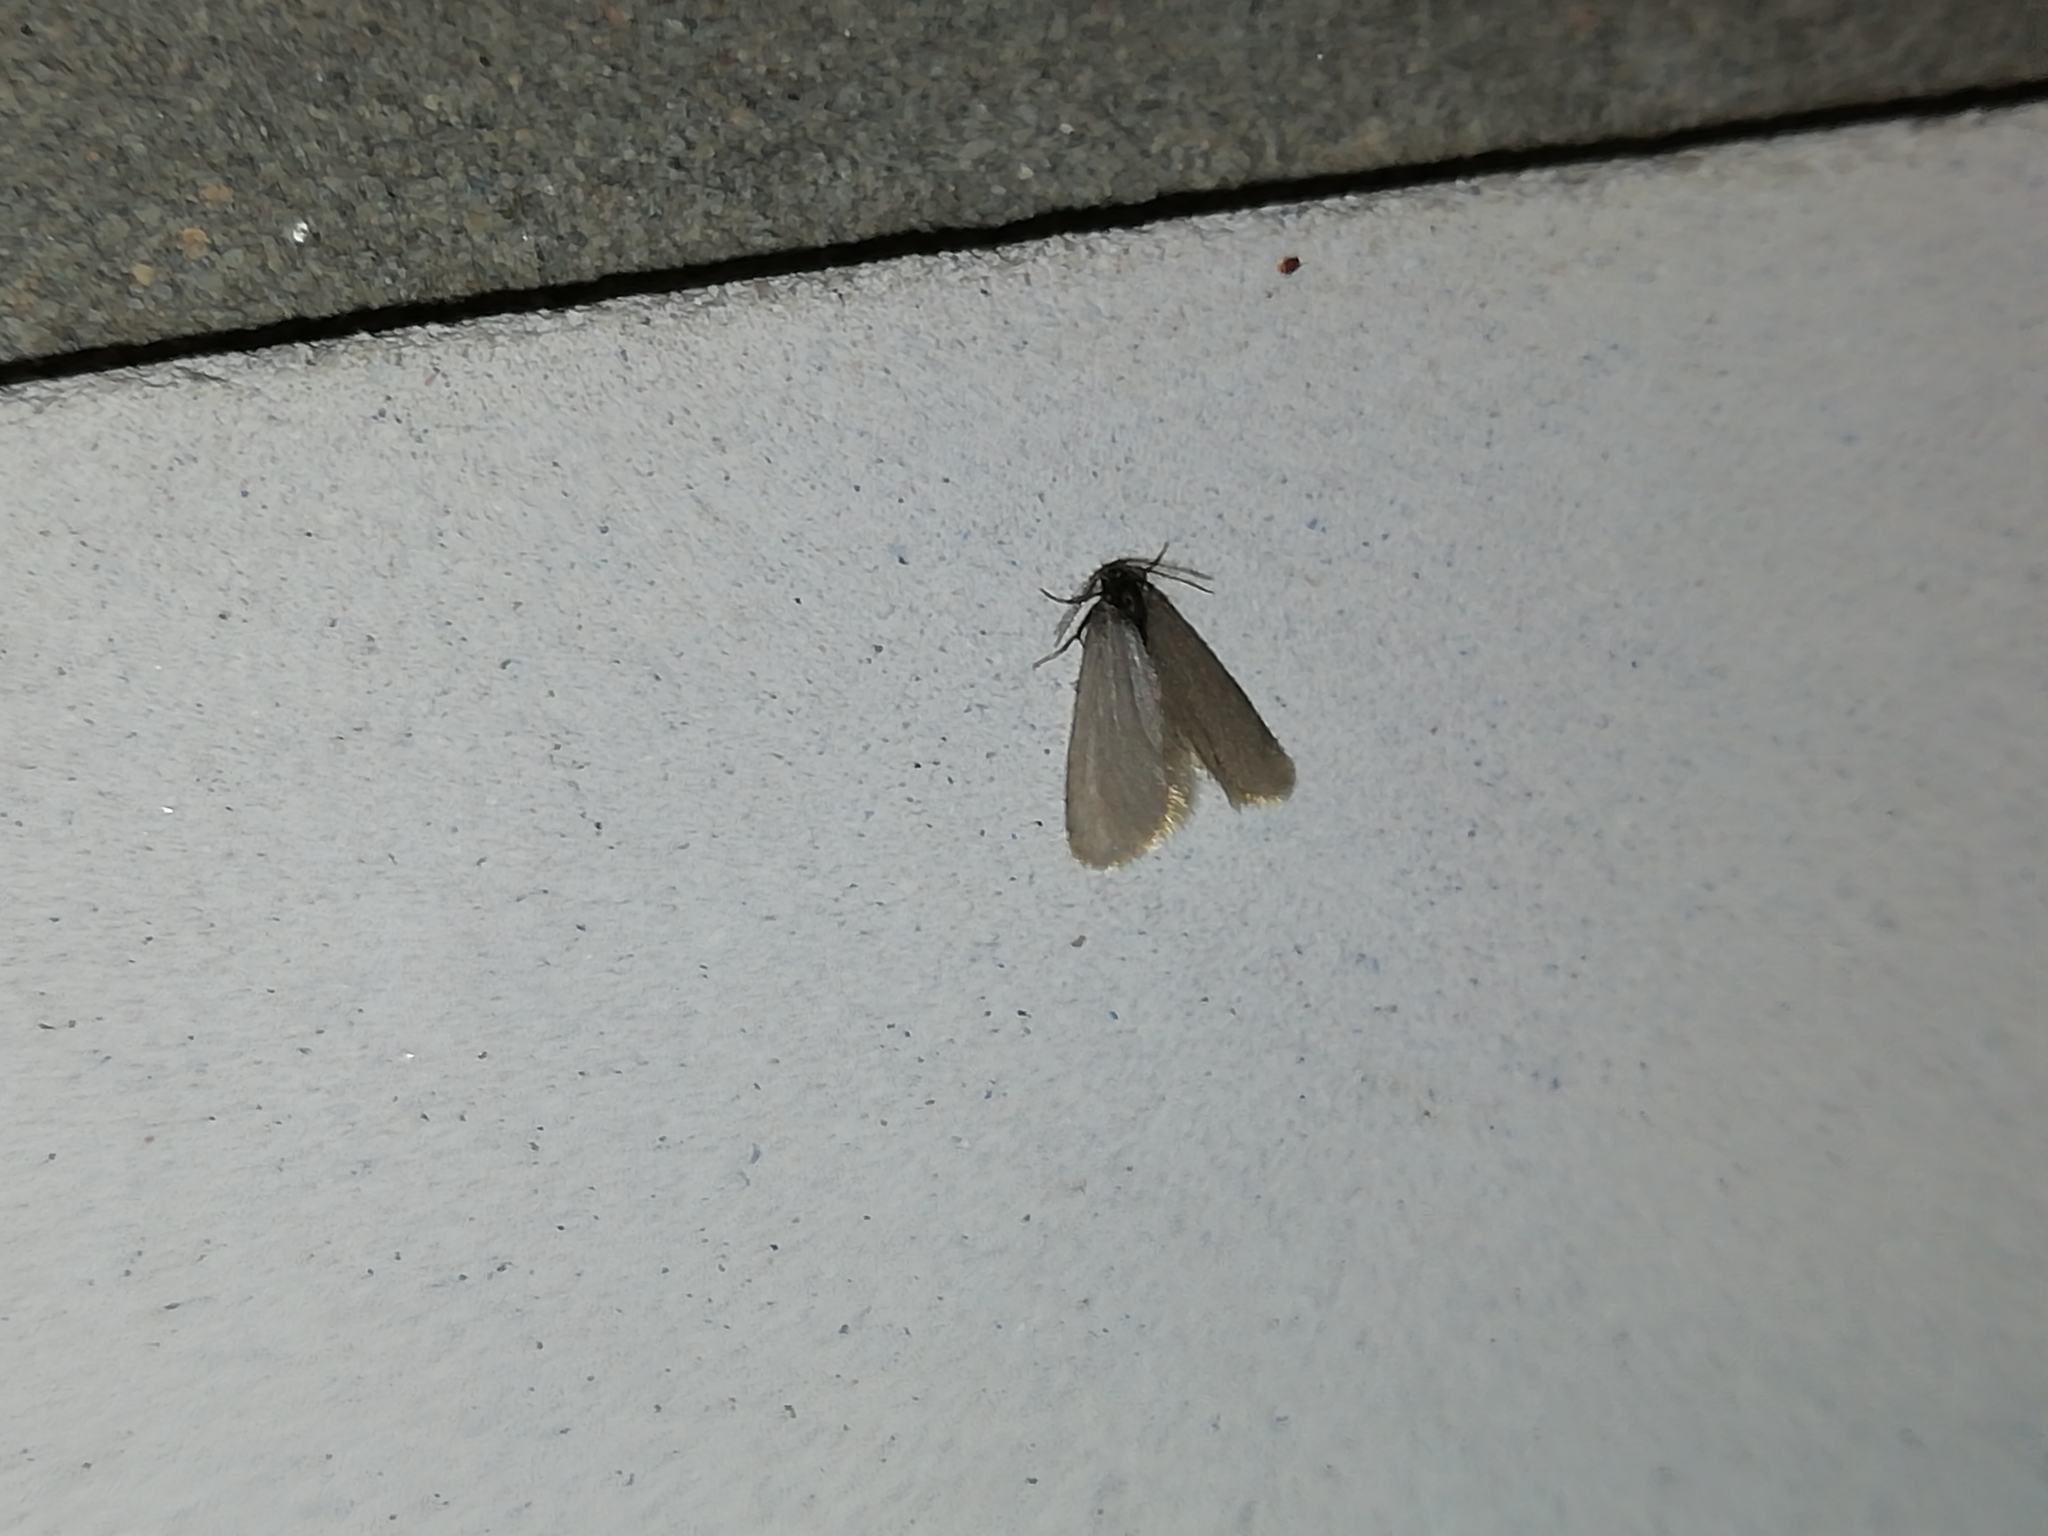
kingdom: Animalia
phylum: Arthropoda
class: Insecta
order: Lepidoptera
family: Psychidae
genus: Rebelia
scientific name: Rebelia perlucidella
